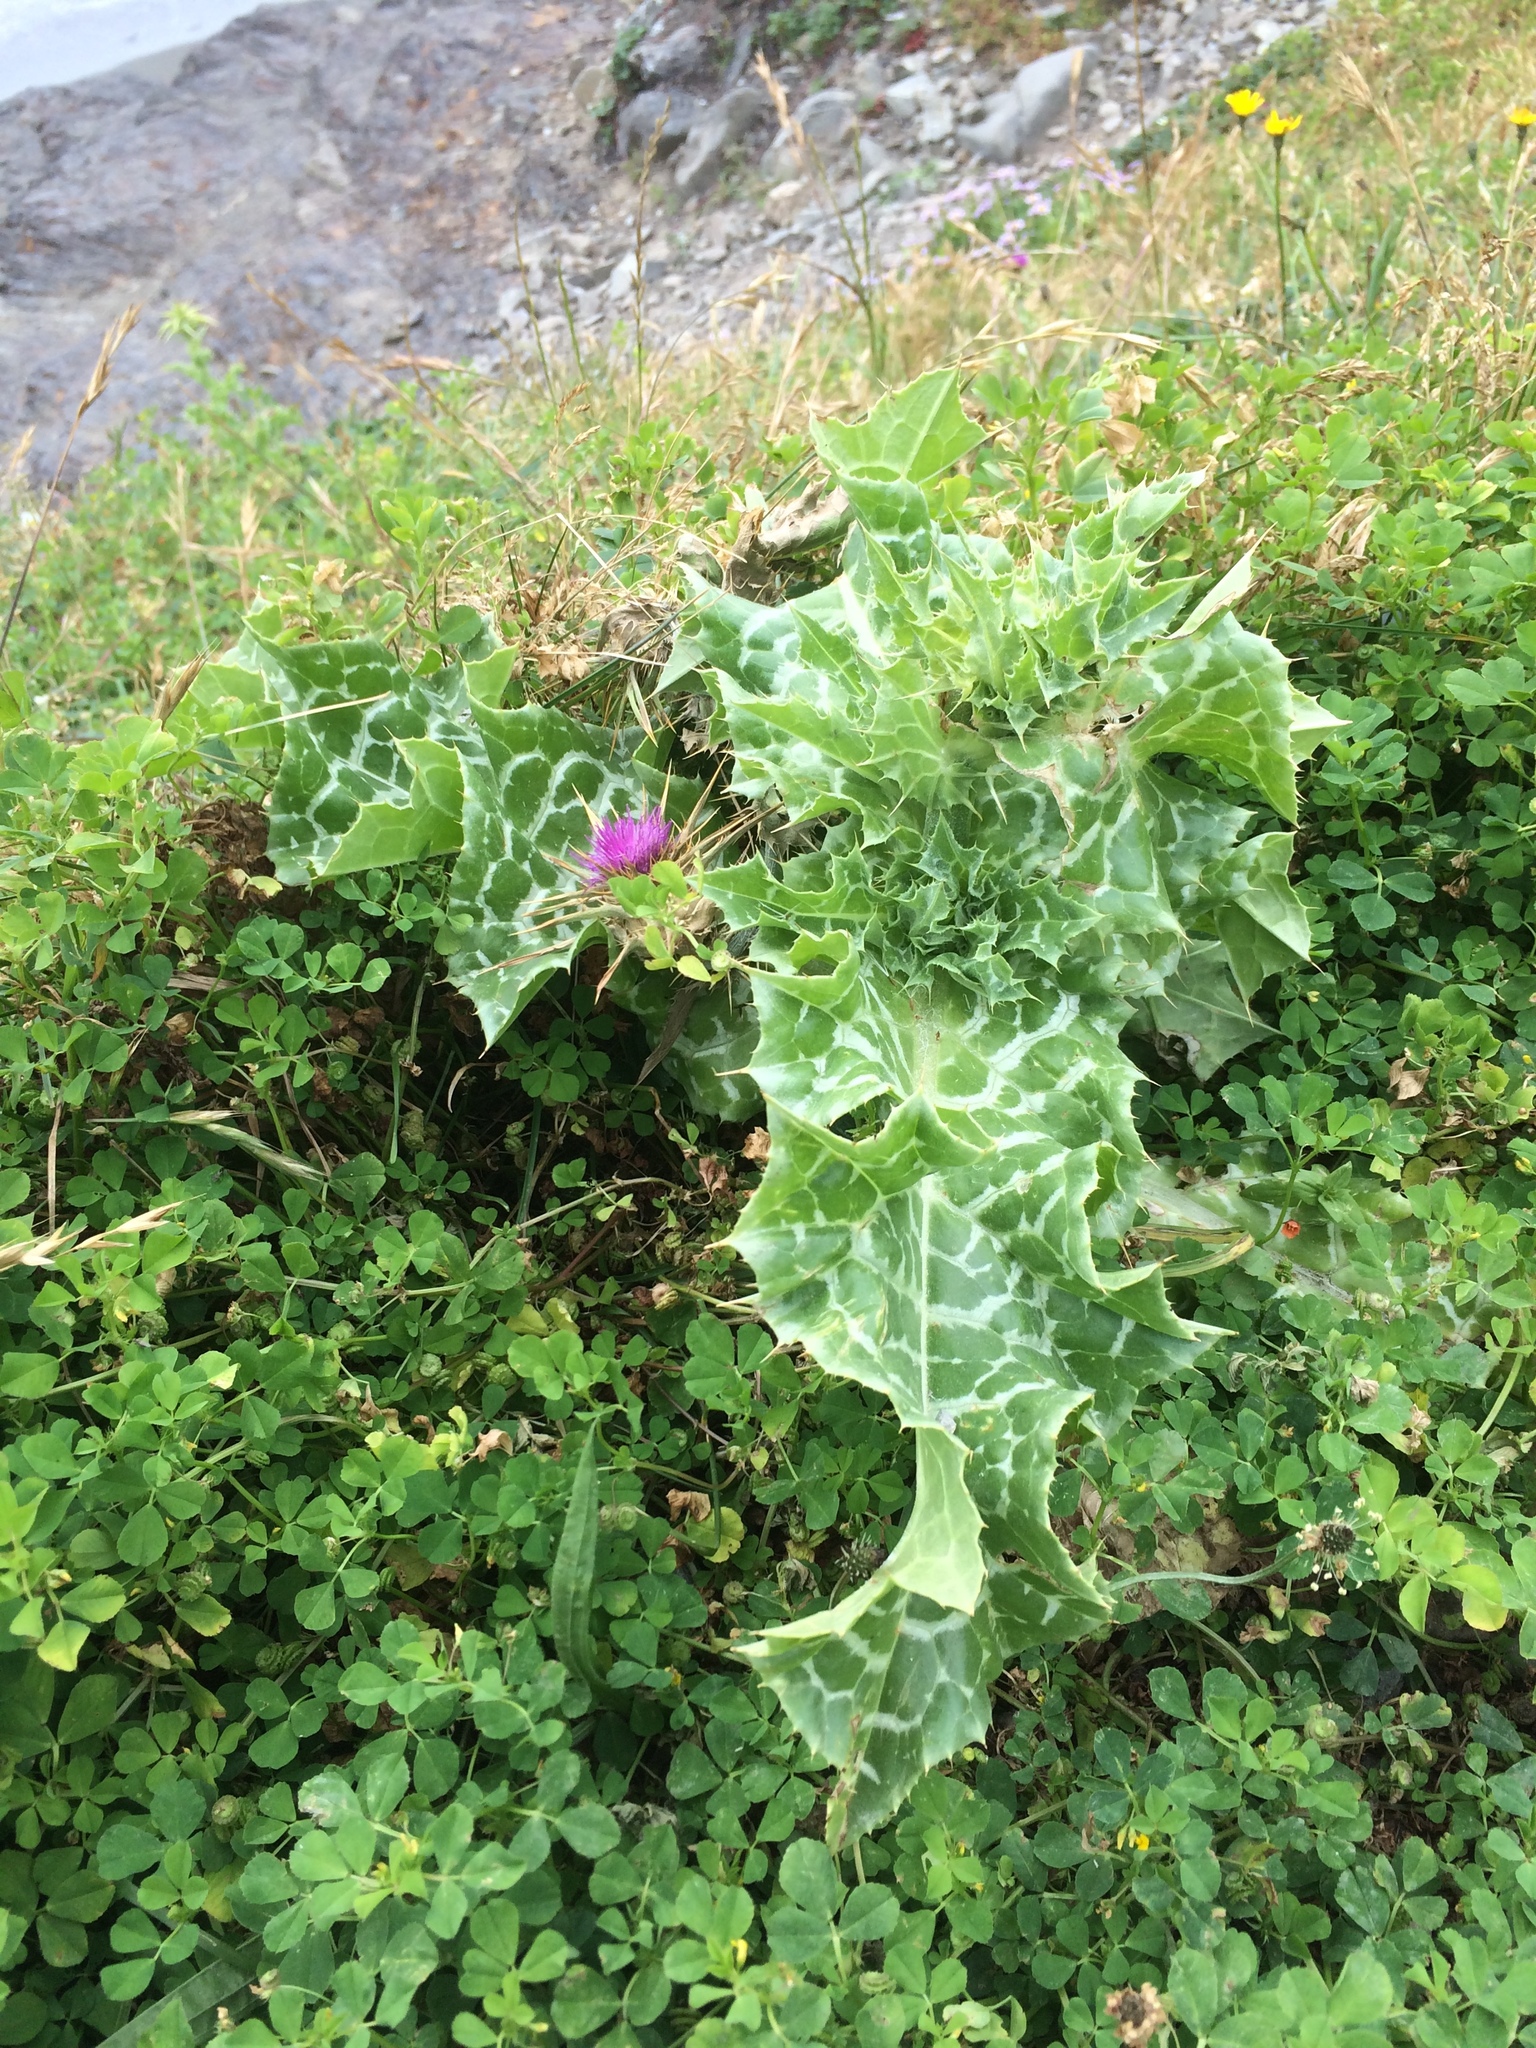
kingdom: Plantae
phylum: Tracheophyta
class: Magnoliopsida
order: Asterales
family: Asteraceae
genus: Silybum
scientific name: Silybum marianum
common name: Milk thistle
